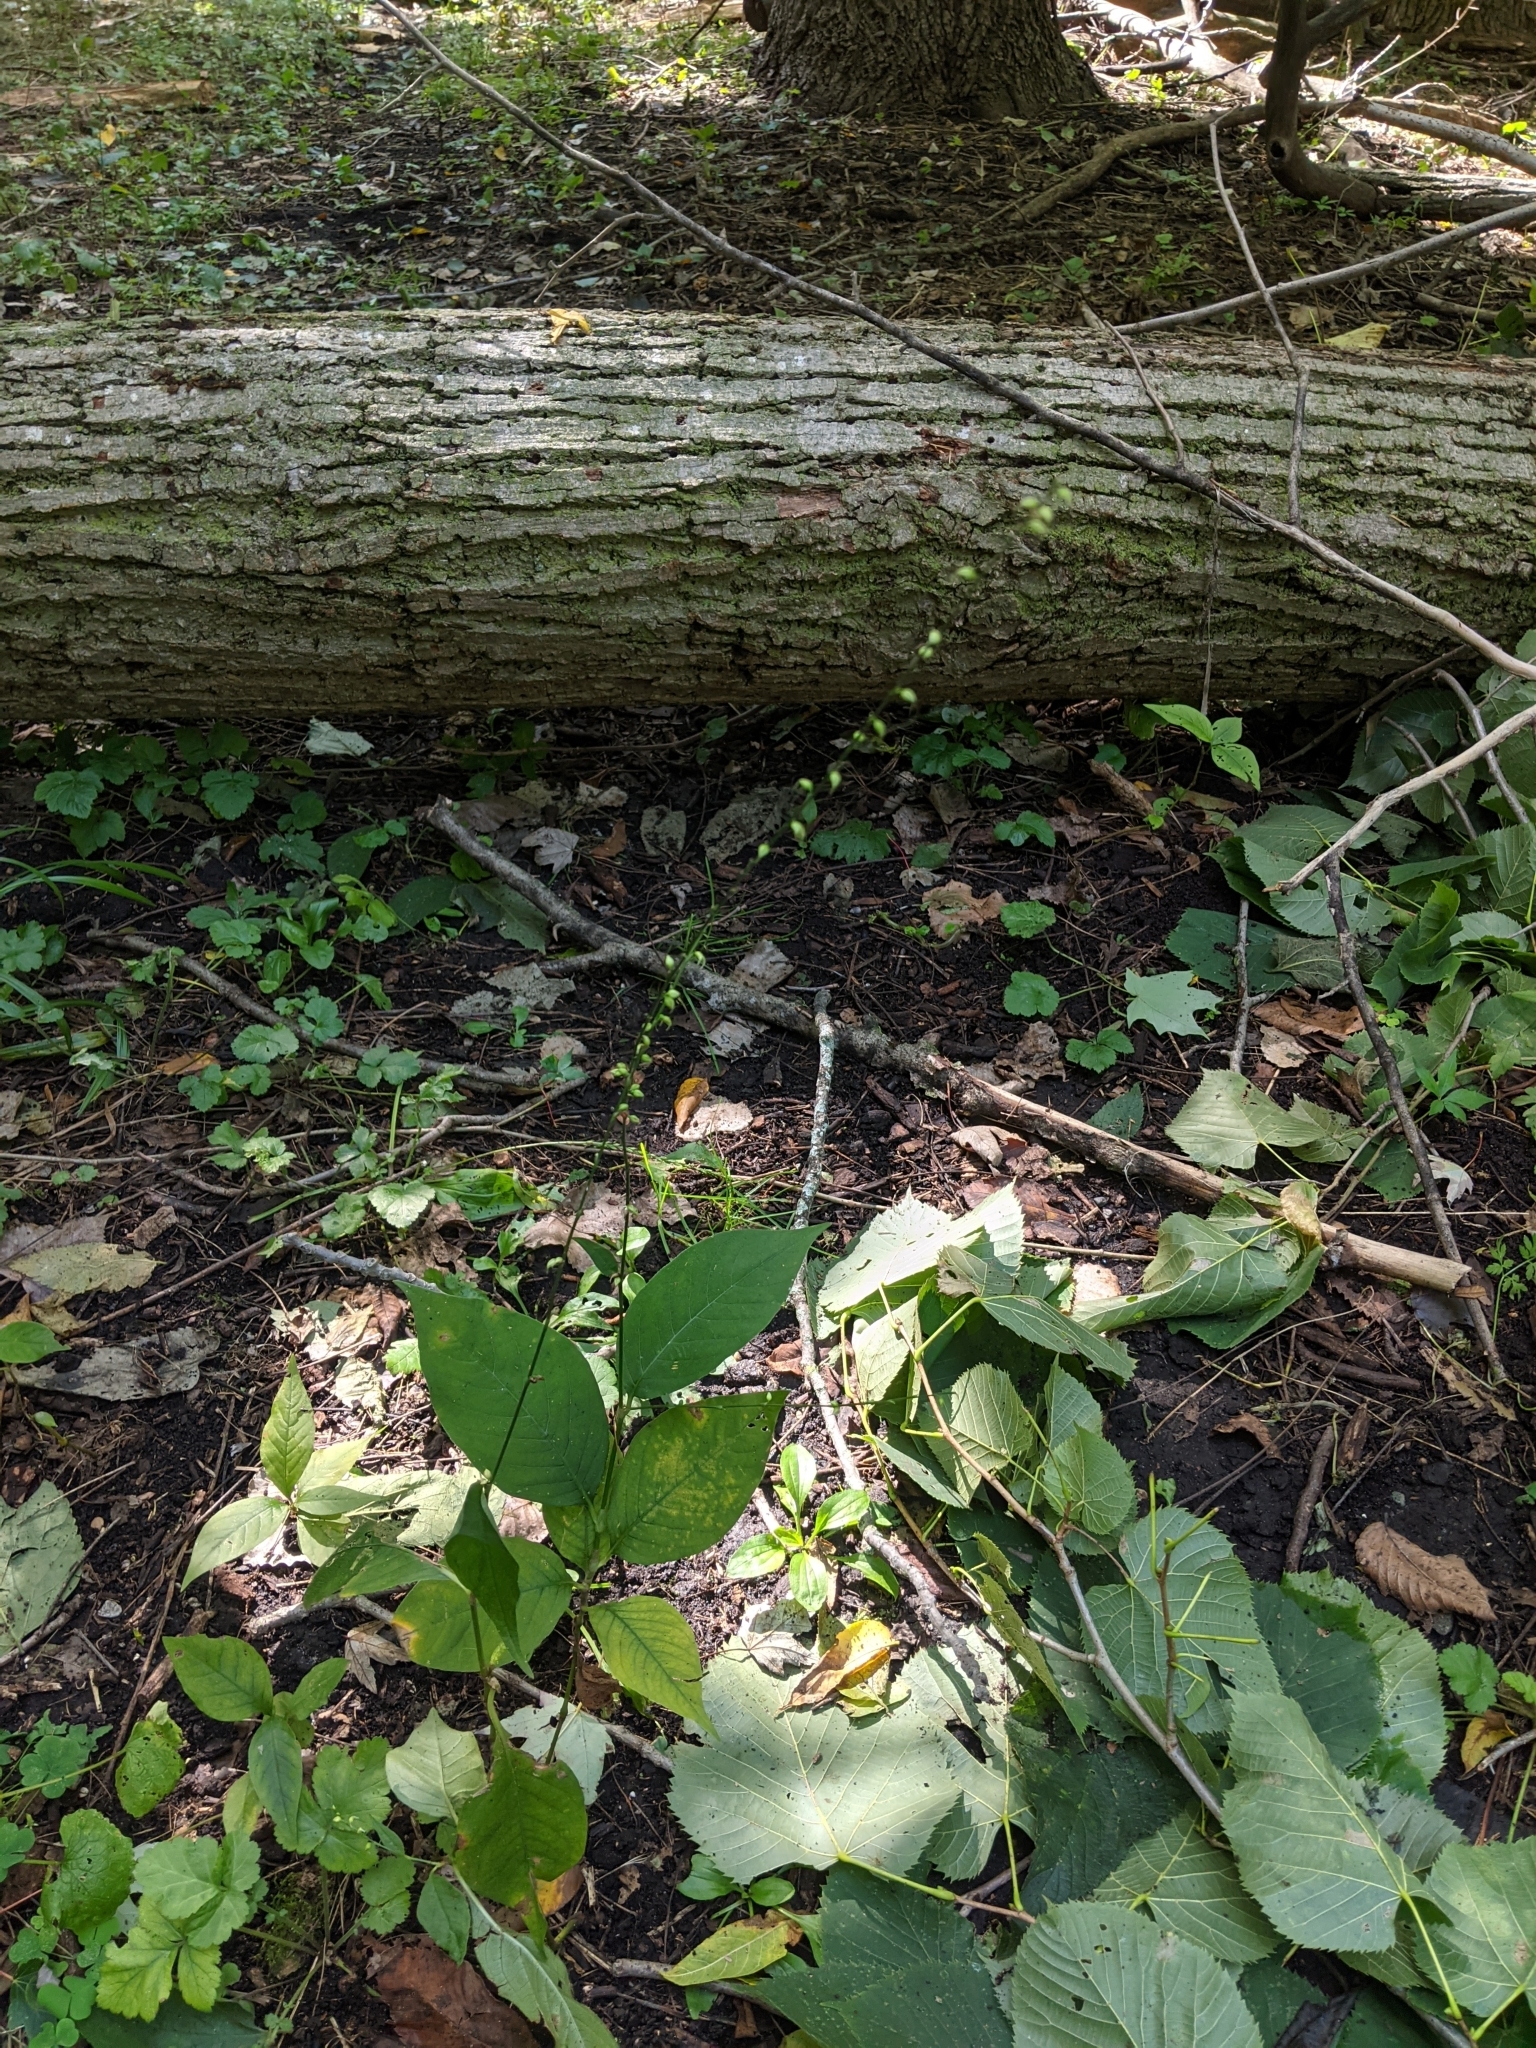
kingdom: Plantae
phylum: Tracheophyta
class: Magnoliopsida
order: Caryophyllales
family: Polygonaceae
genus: Persicaria
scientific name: Persicaria virginiana
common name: Jumpseed
